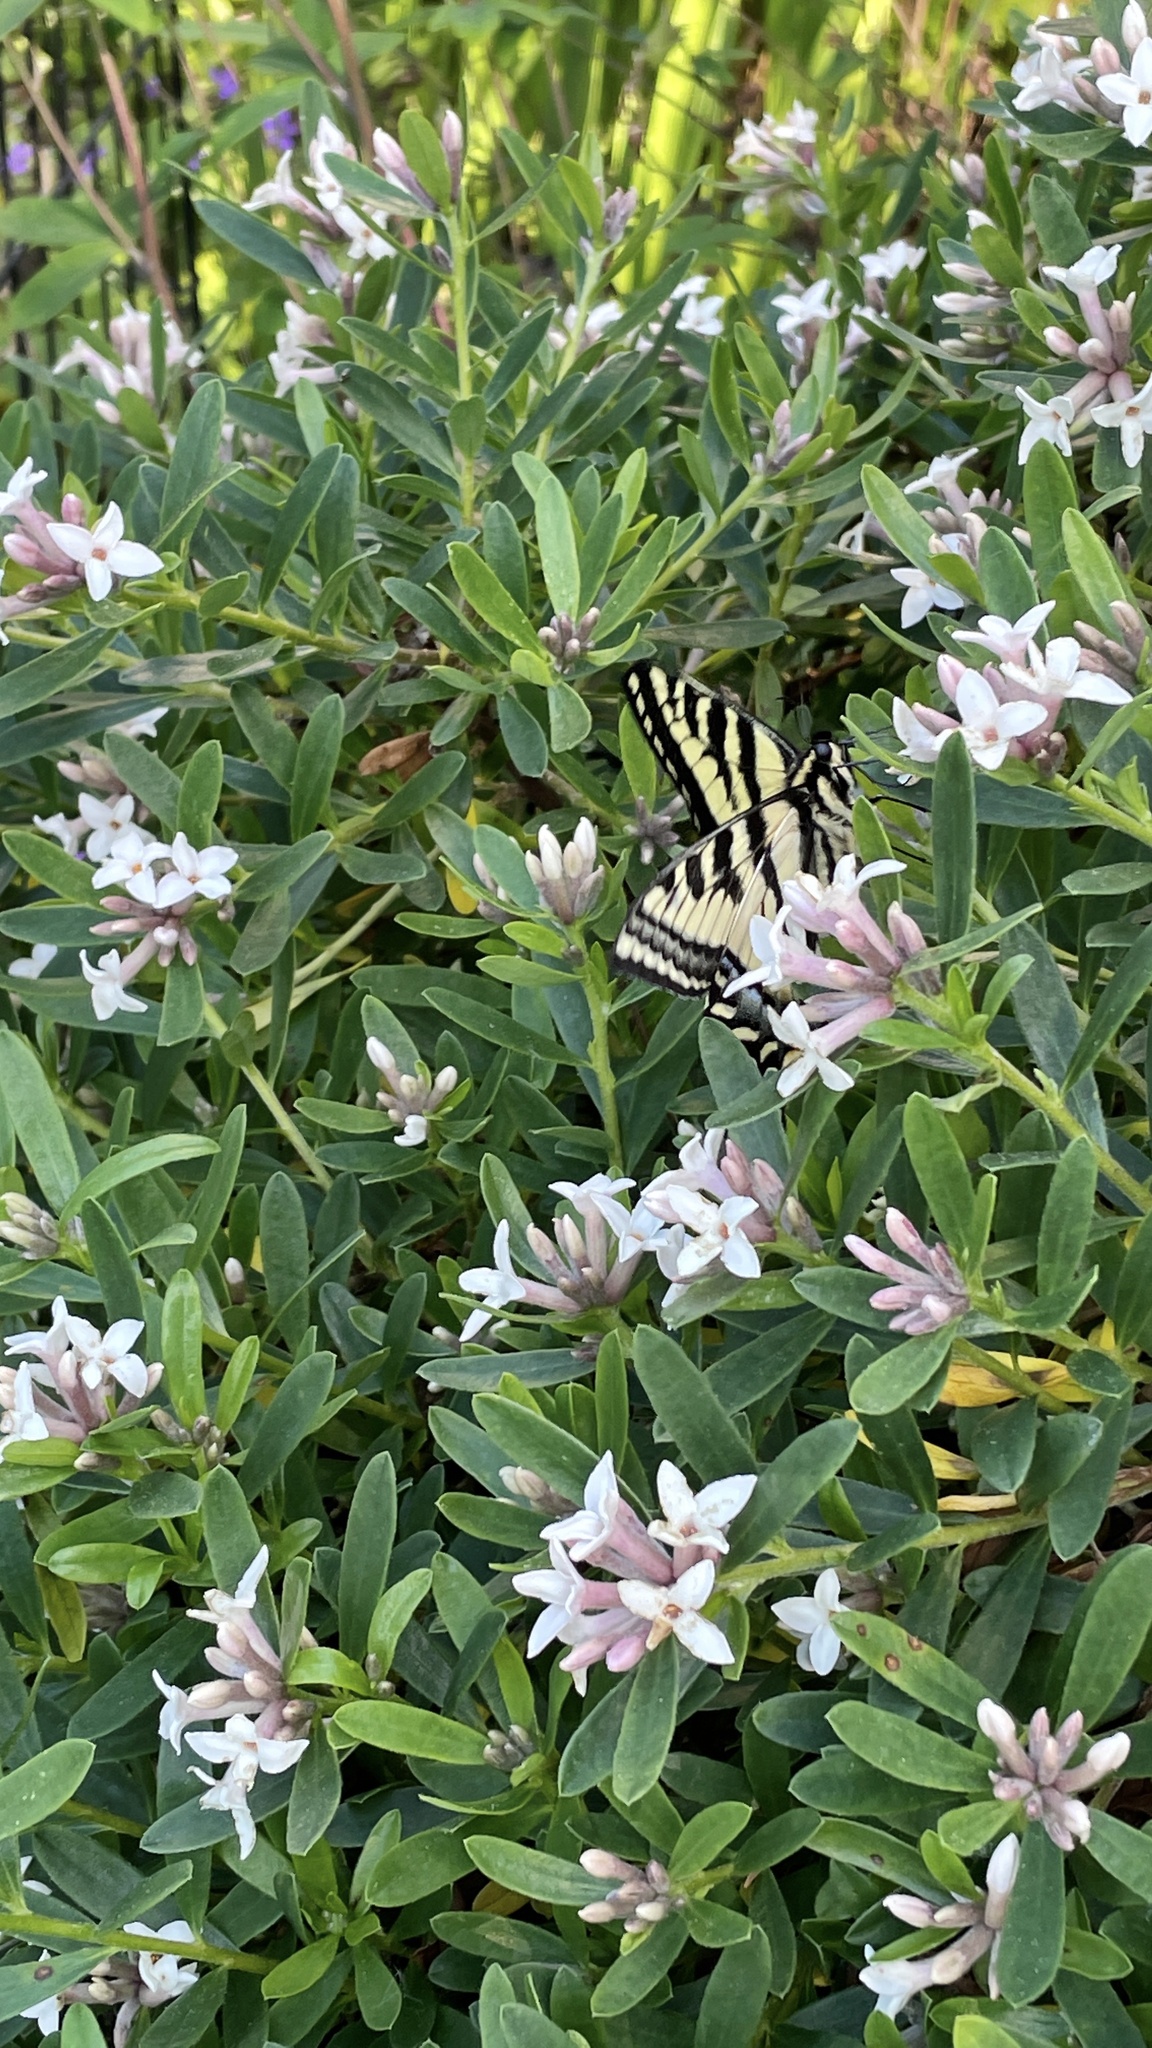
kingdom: Animalia
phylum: Arthropoda
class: Insecta
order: Lepidoptera
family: Papilionidae
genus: Papilio
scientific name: Papilio rutulus
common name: Western tiger swallowtail
